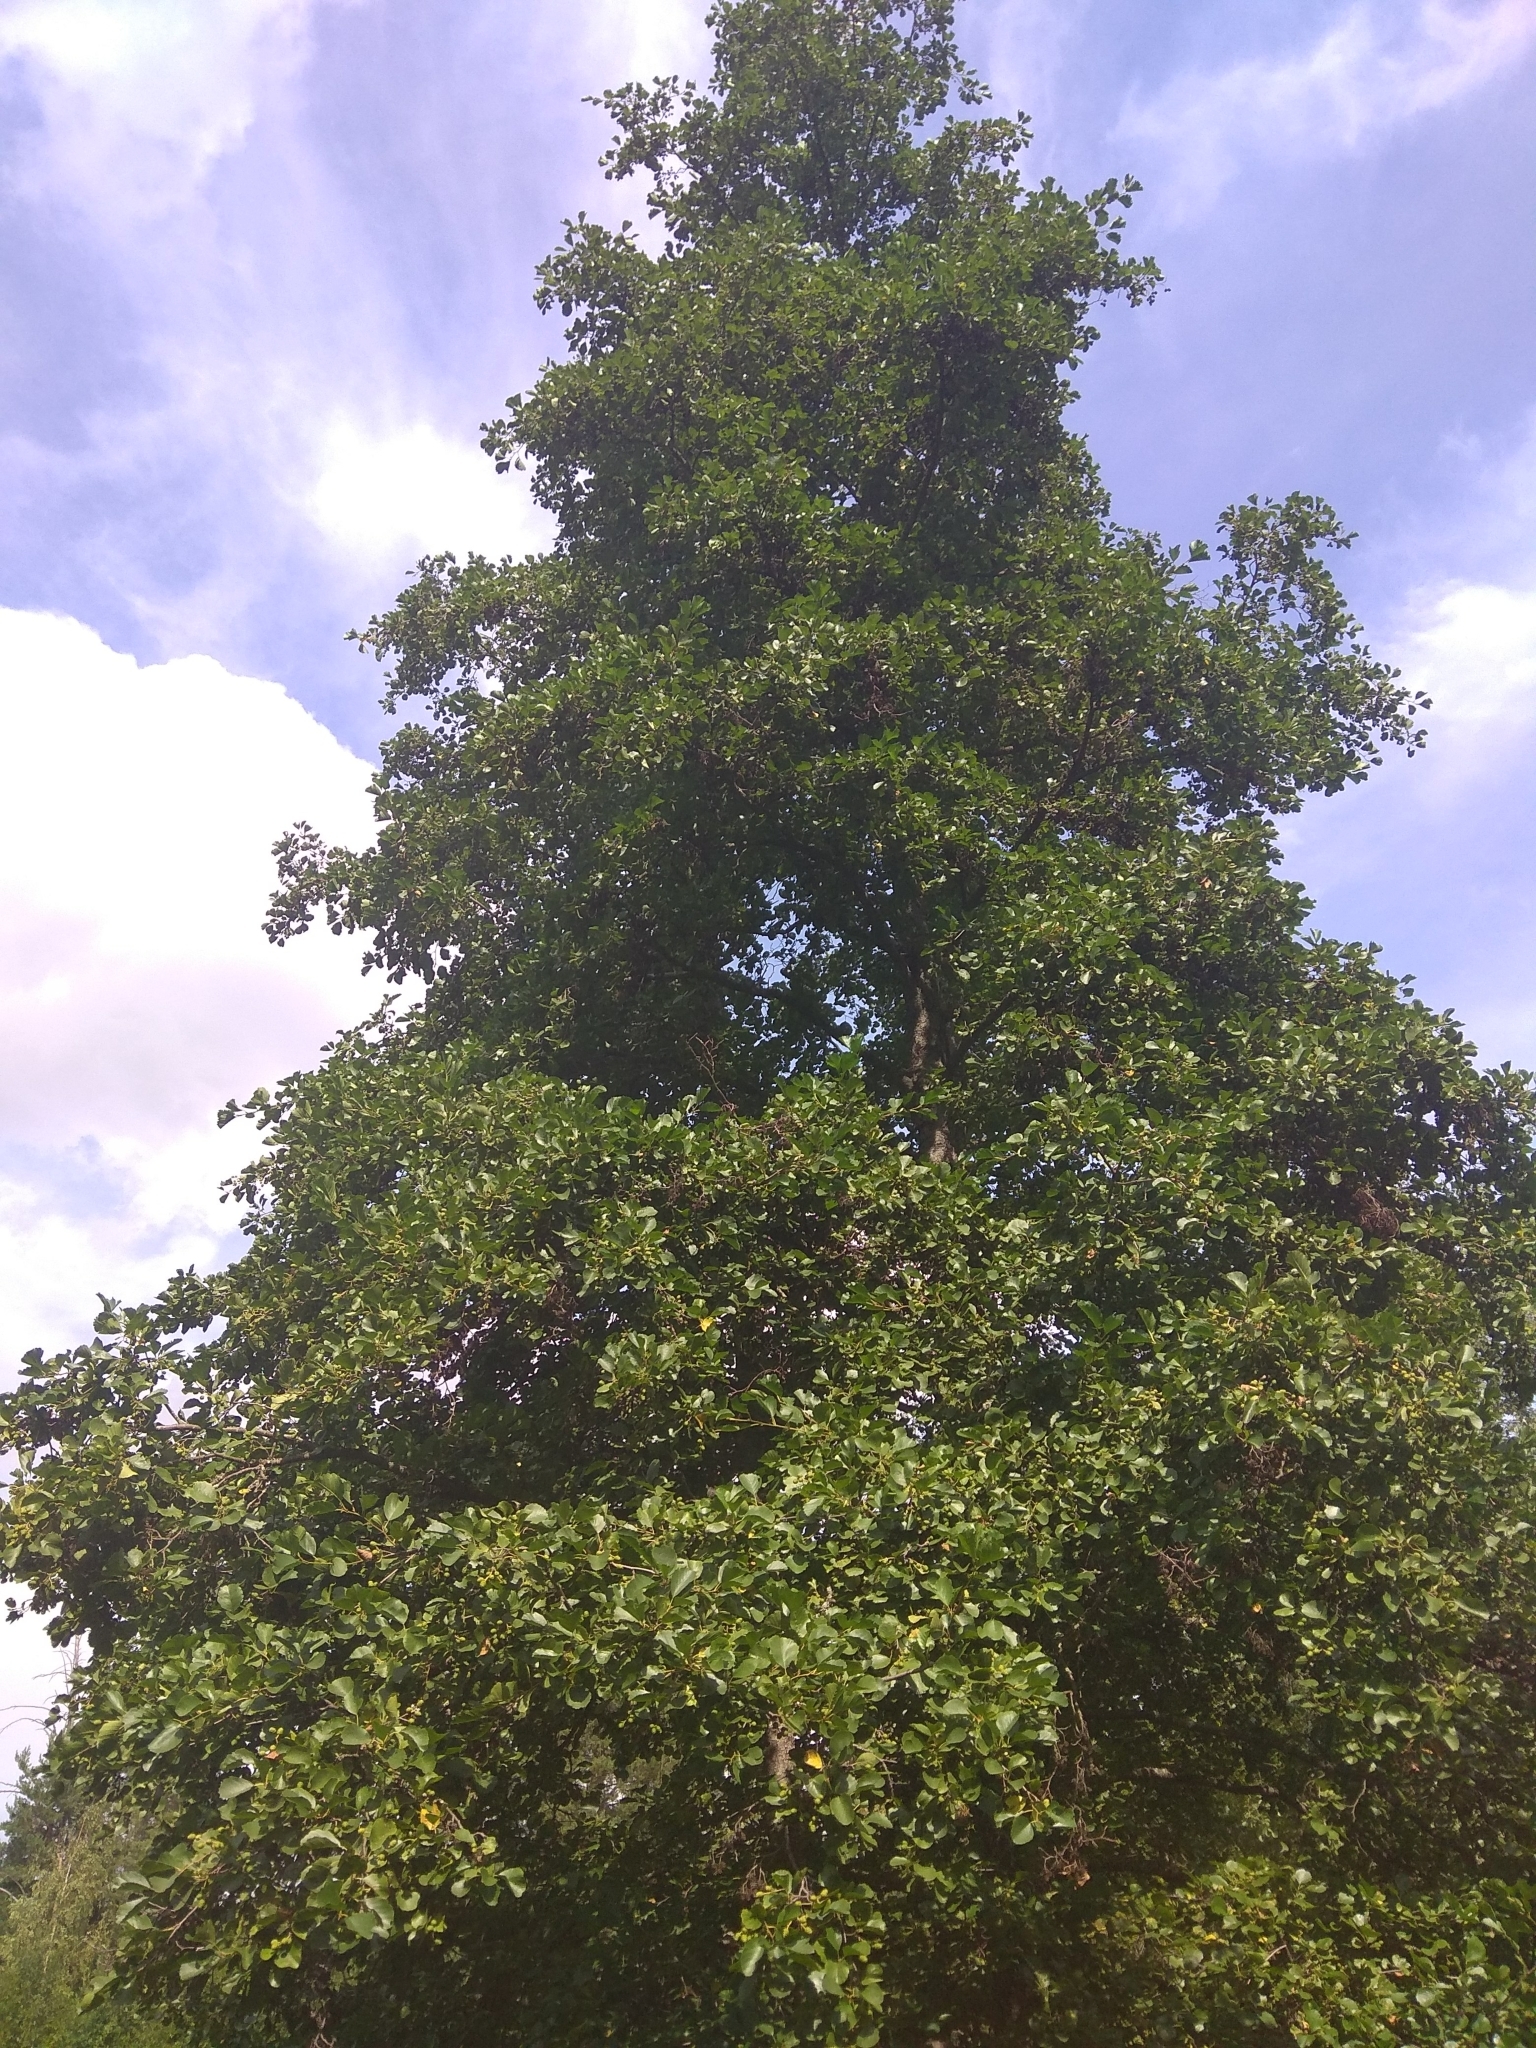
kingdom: Plantae
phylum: Tracheophyta
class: Magnoliopsida
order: Fagales
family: Betulaceae
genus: Alnus
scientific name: Alnus glutinosa
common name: Black alder
